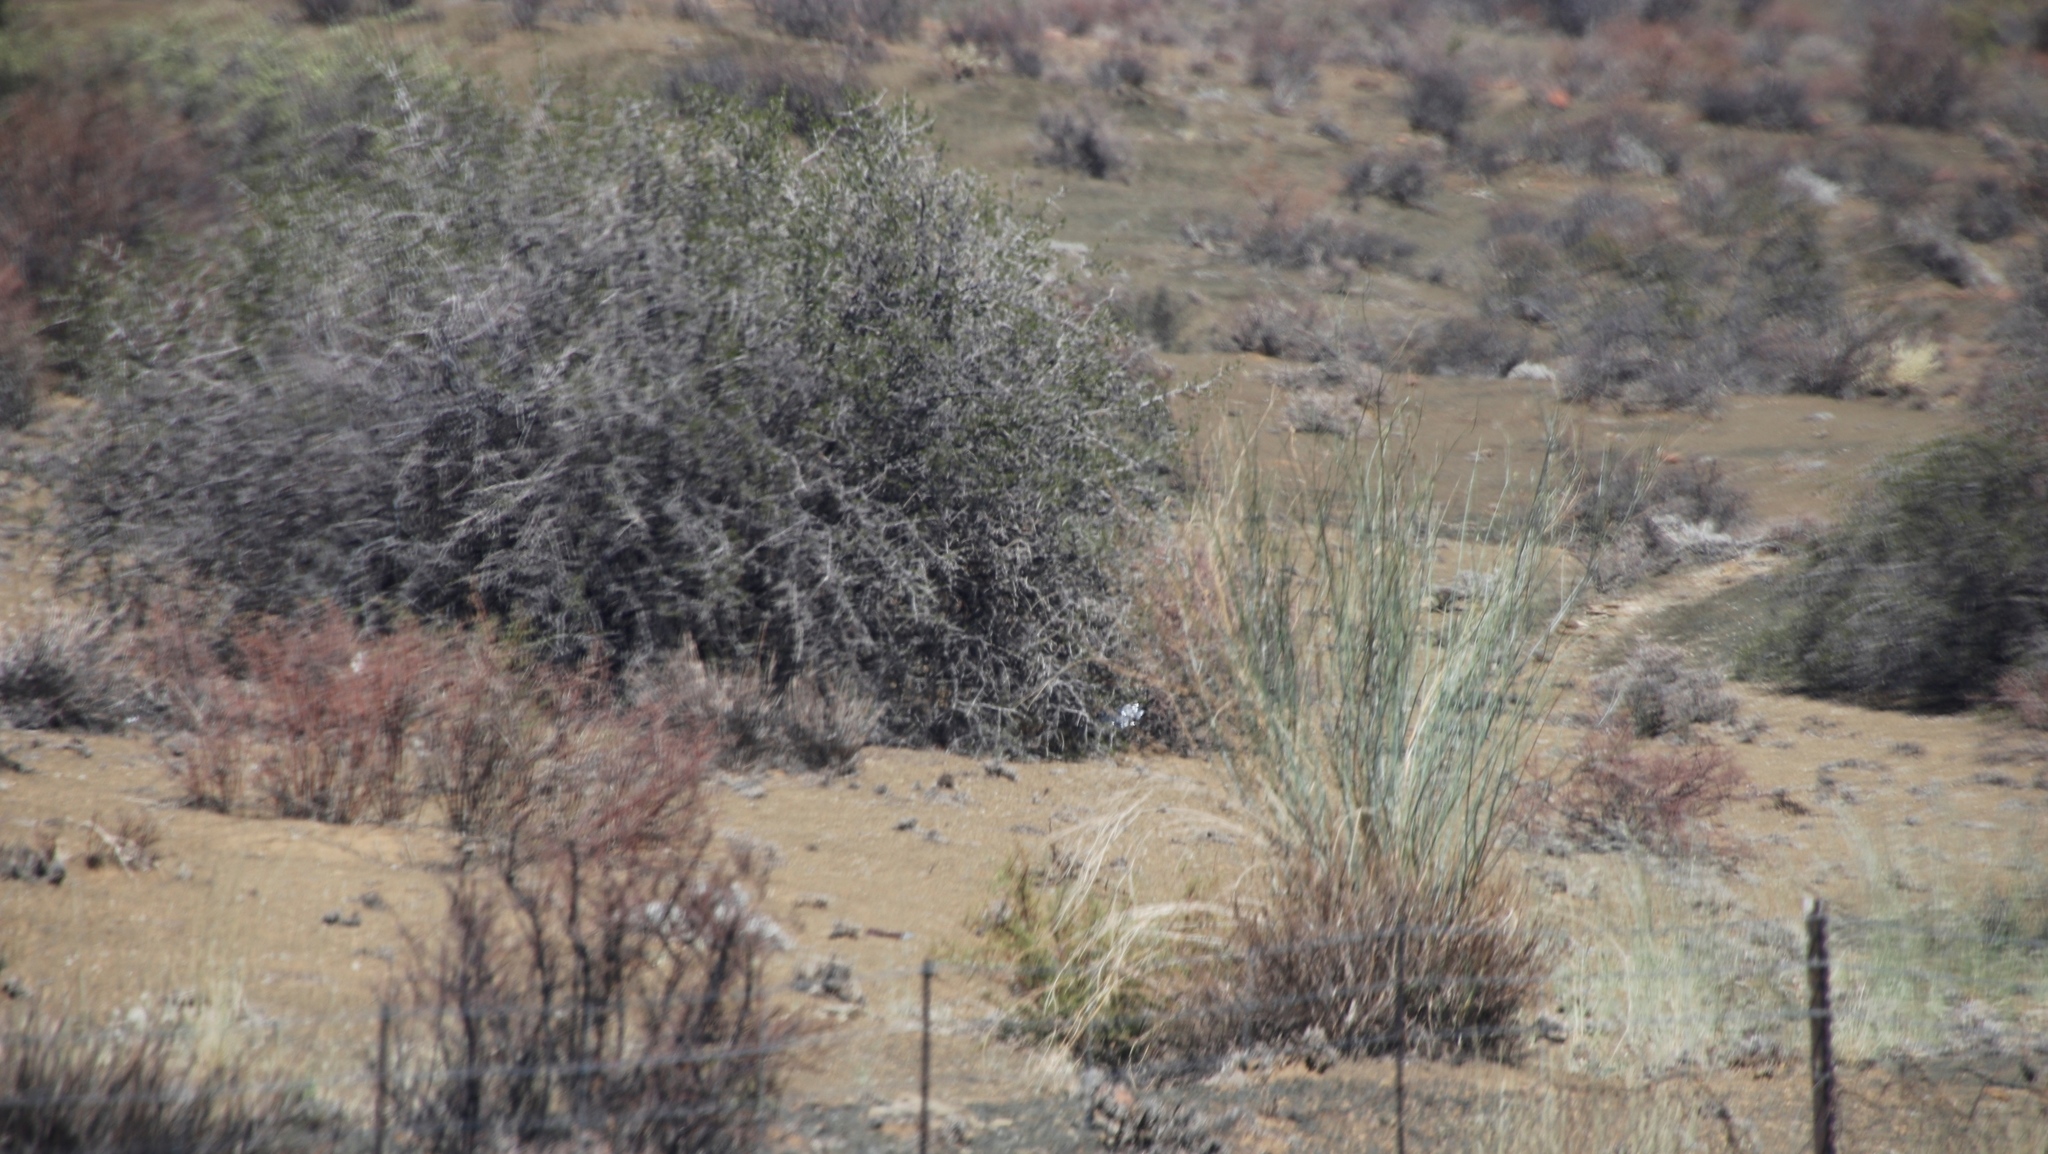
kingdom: Plantae
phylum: Tracheophyta
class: Magnoliopsida
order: Gentianales
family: Apocynaceae
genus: Gomphocarpus
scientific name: Gomphocarpus filiformis
